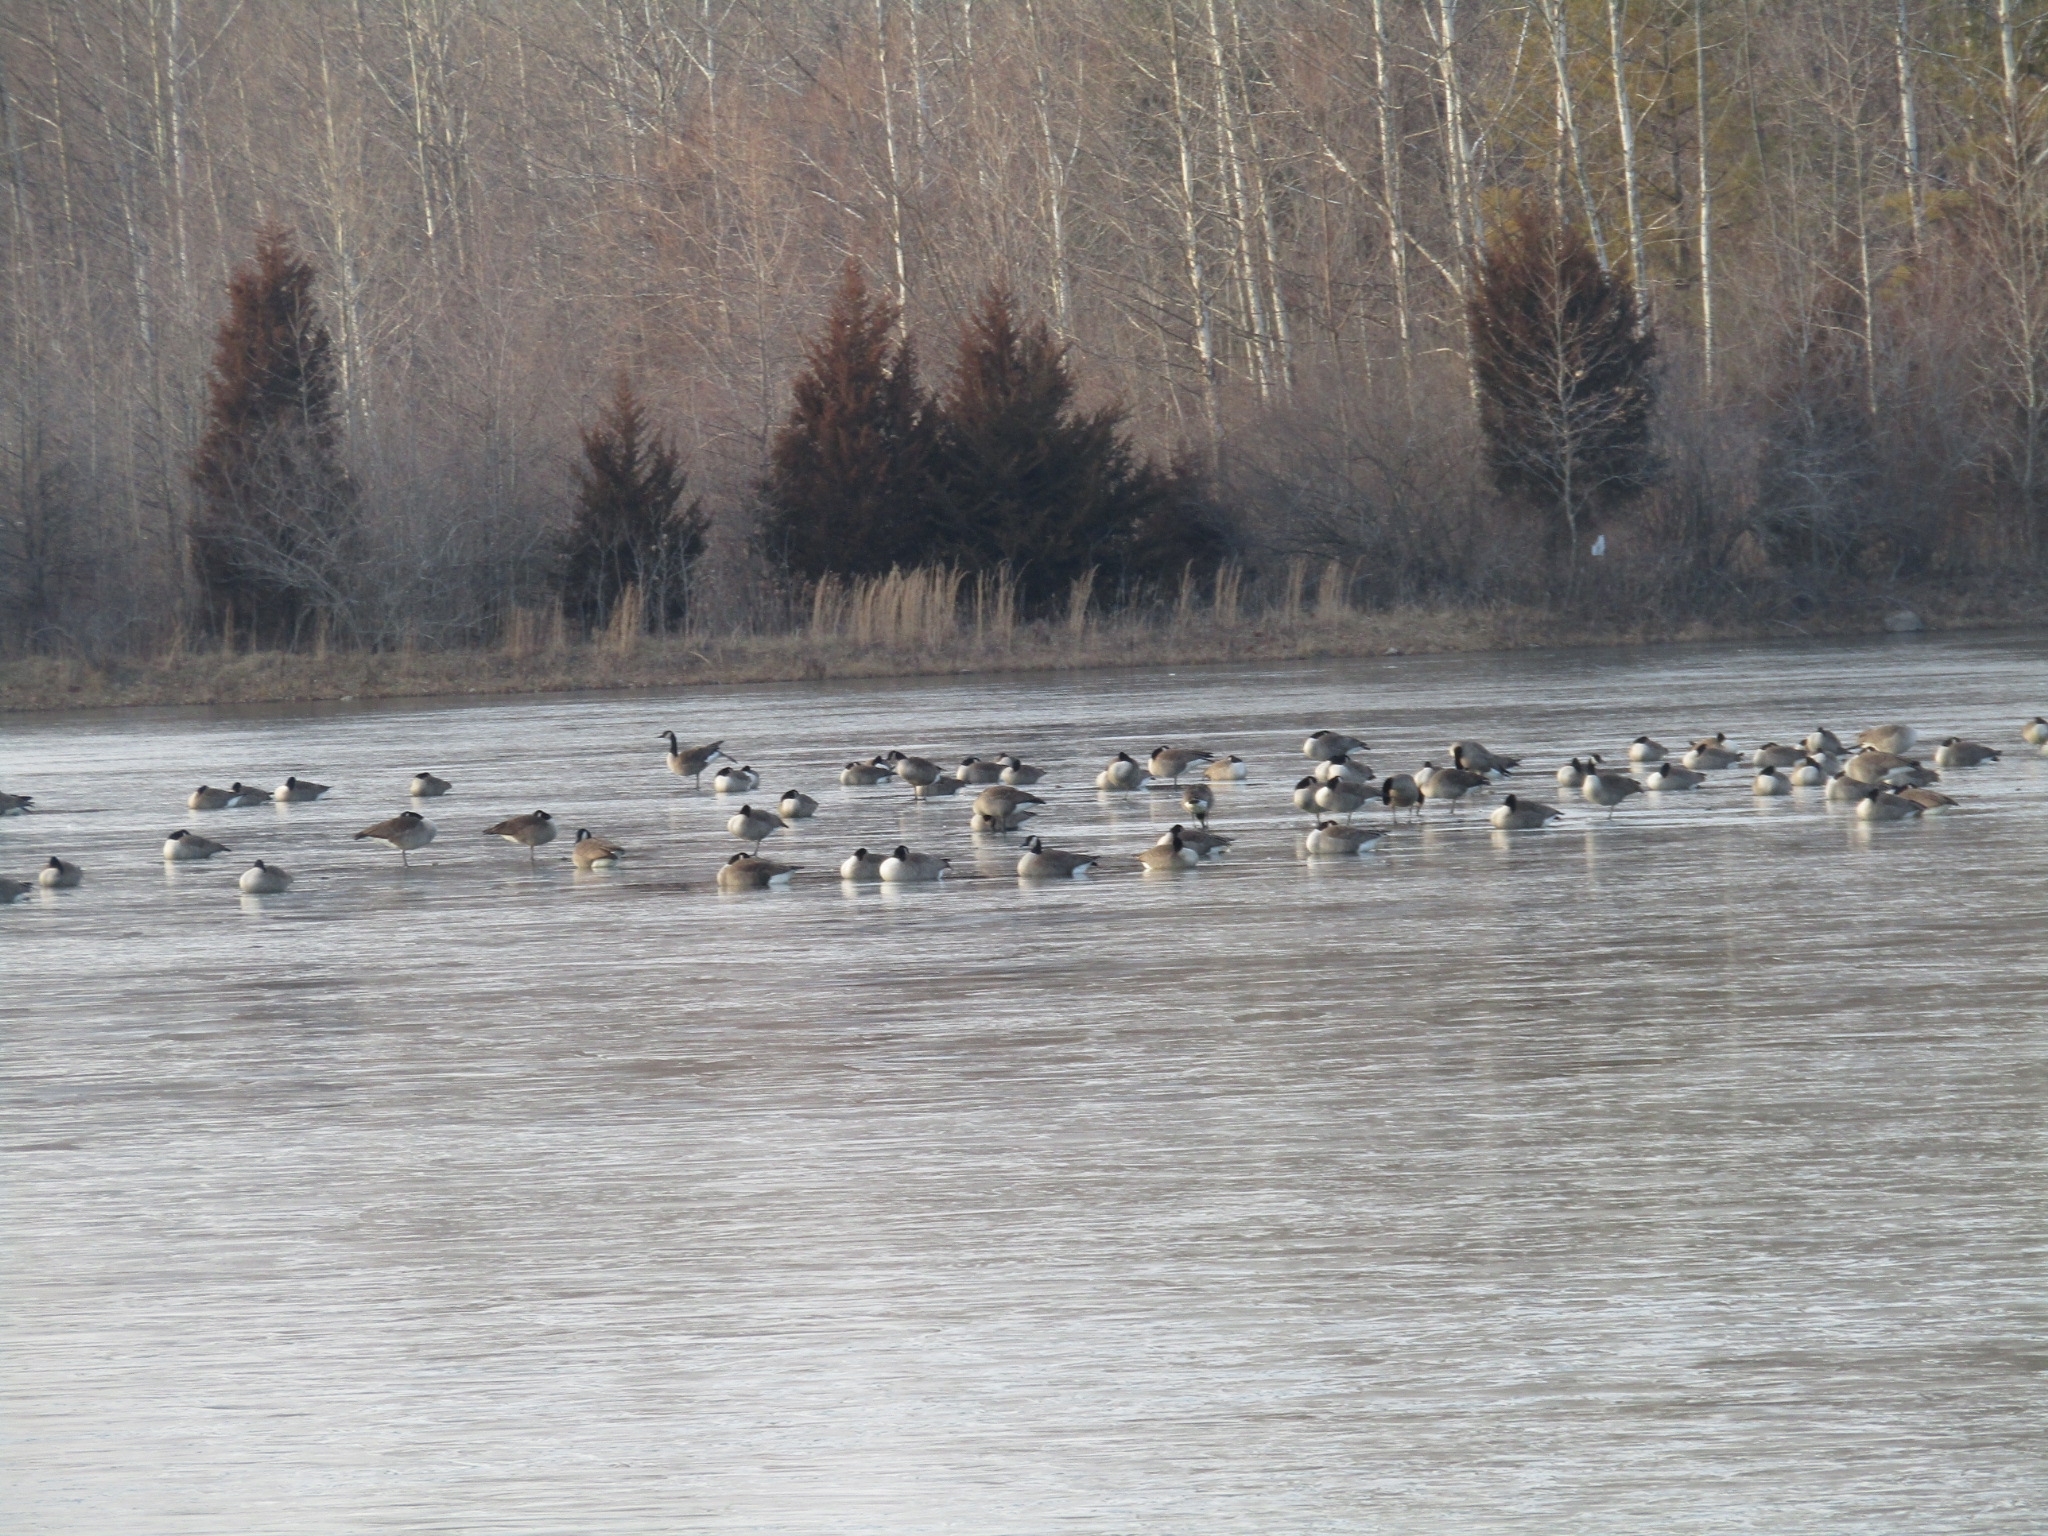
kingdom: Animalia
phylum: Chordata
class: Aves
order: Anseriformes
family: Anatidae
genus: Branta
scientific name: Branta canadensis
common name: Canada goose
